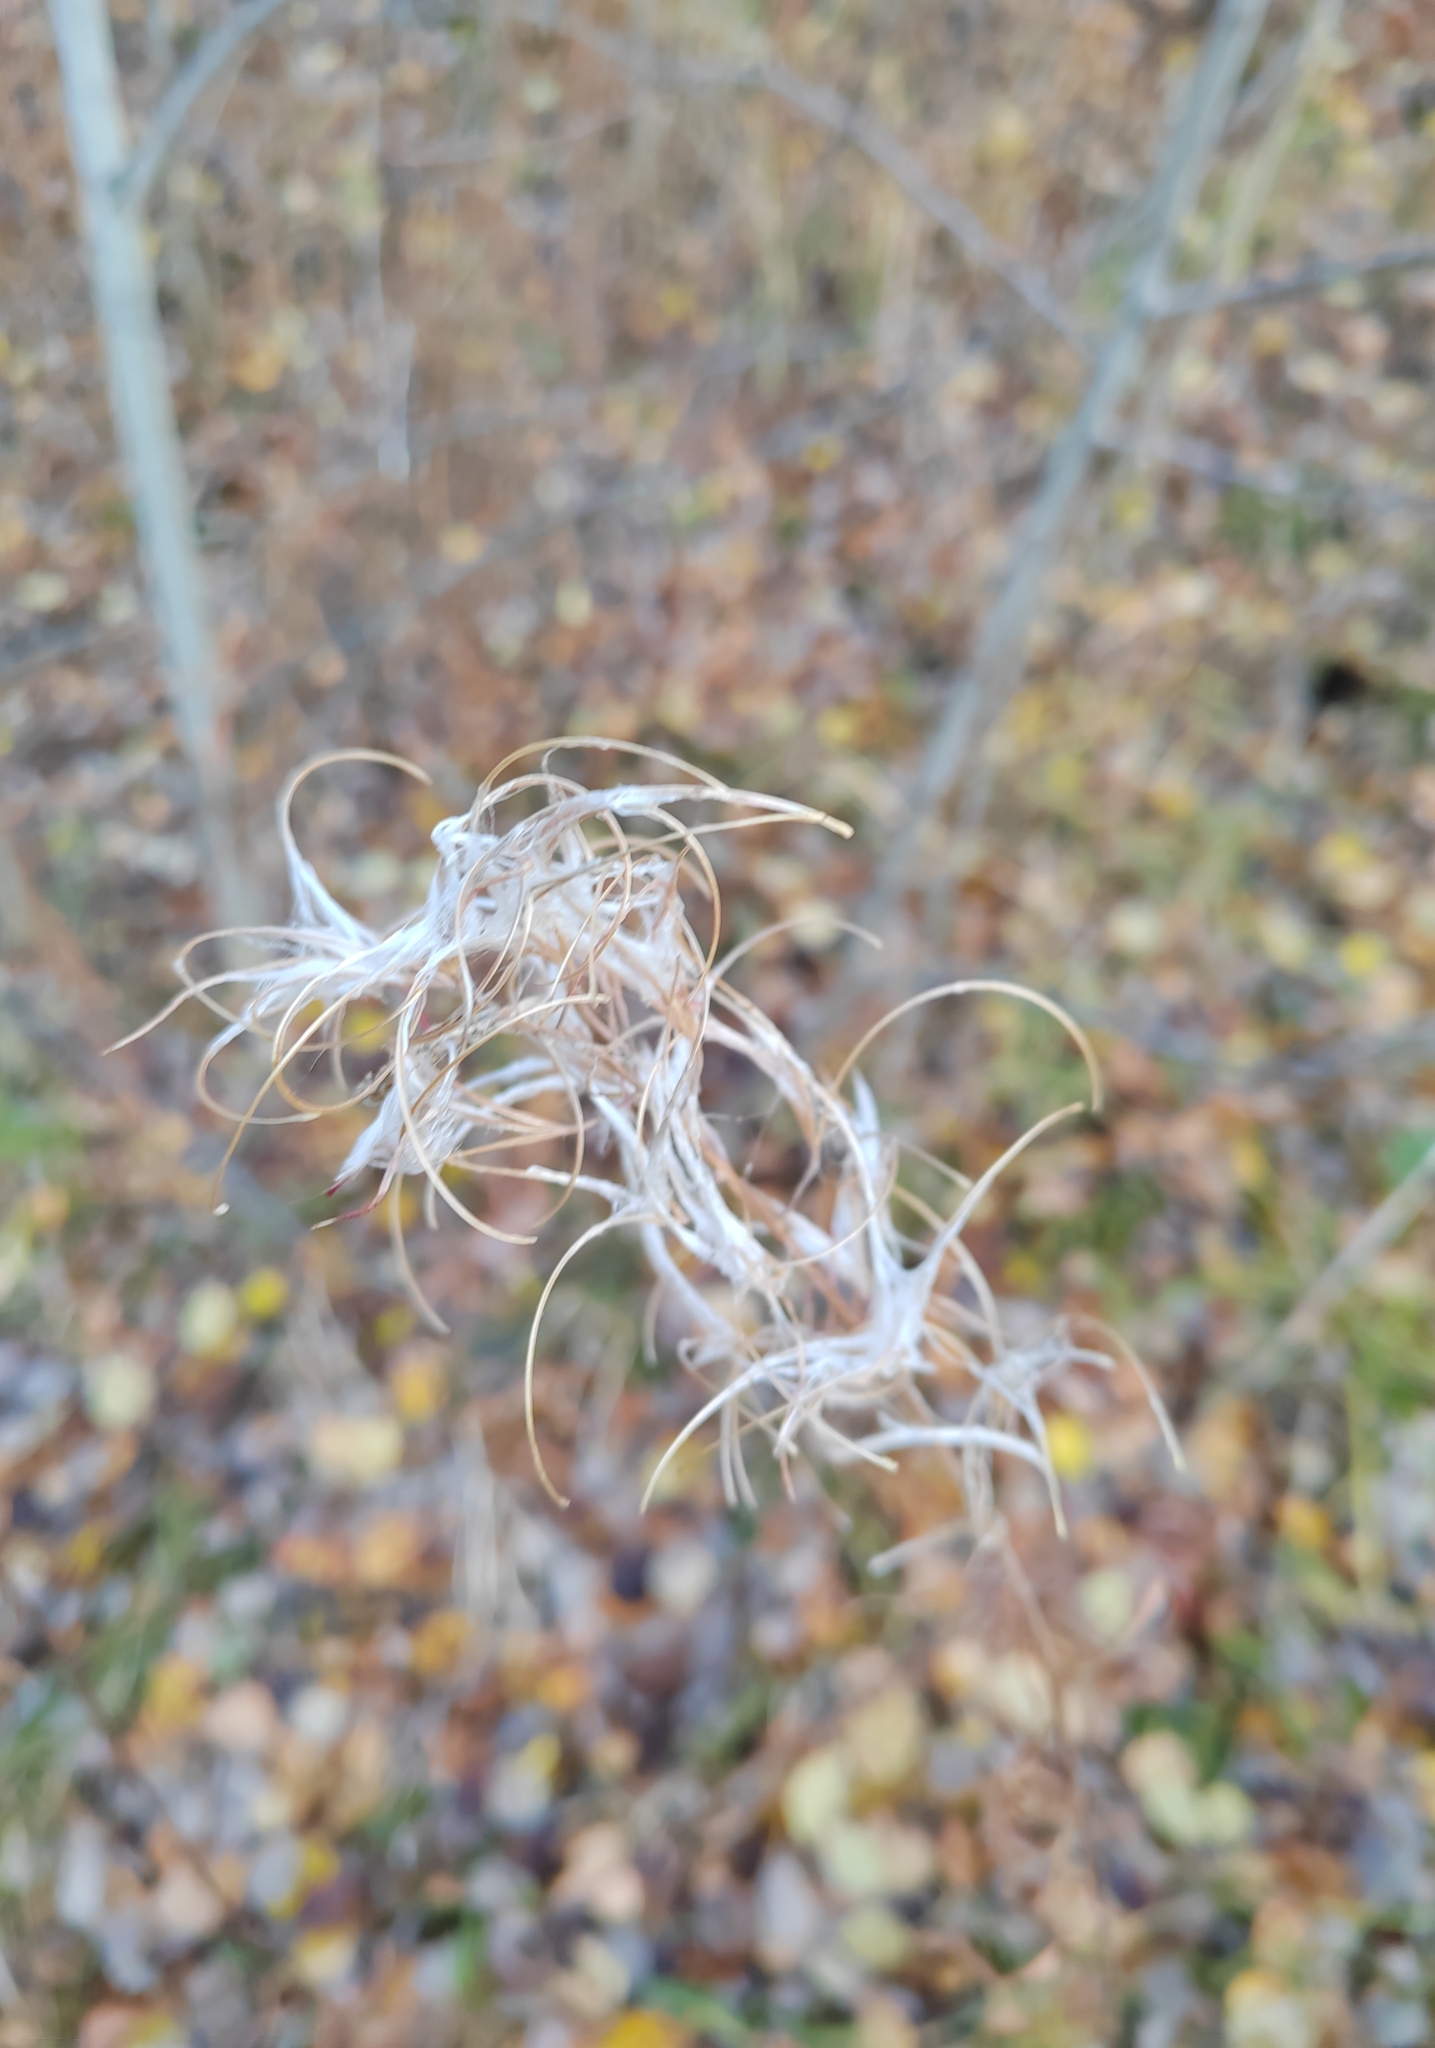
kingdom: Plantae
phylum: Tracheophyta
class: Magnoliopsida
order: Myrtales
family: Onagraceae
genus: Chamaenerion
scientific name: Chamaenerion angustifolium
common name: Fireweed
